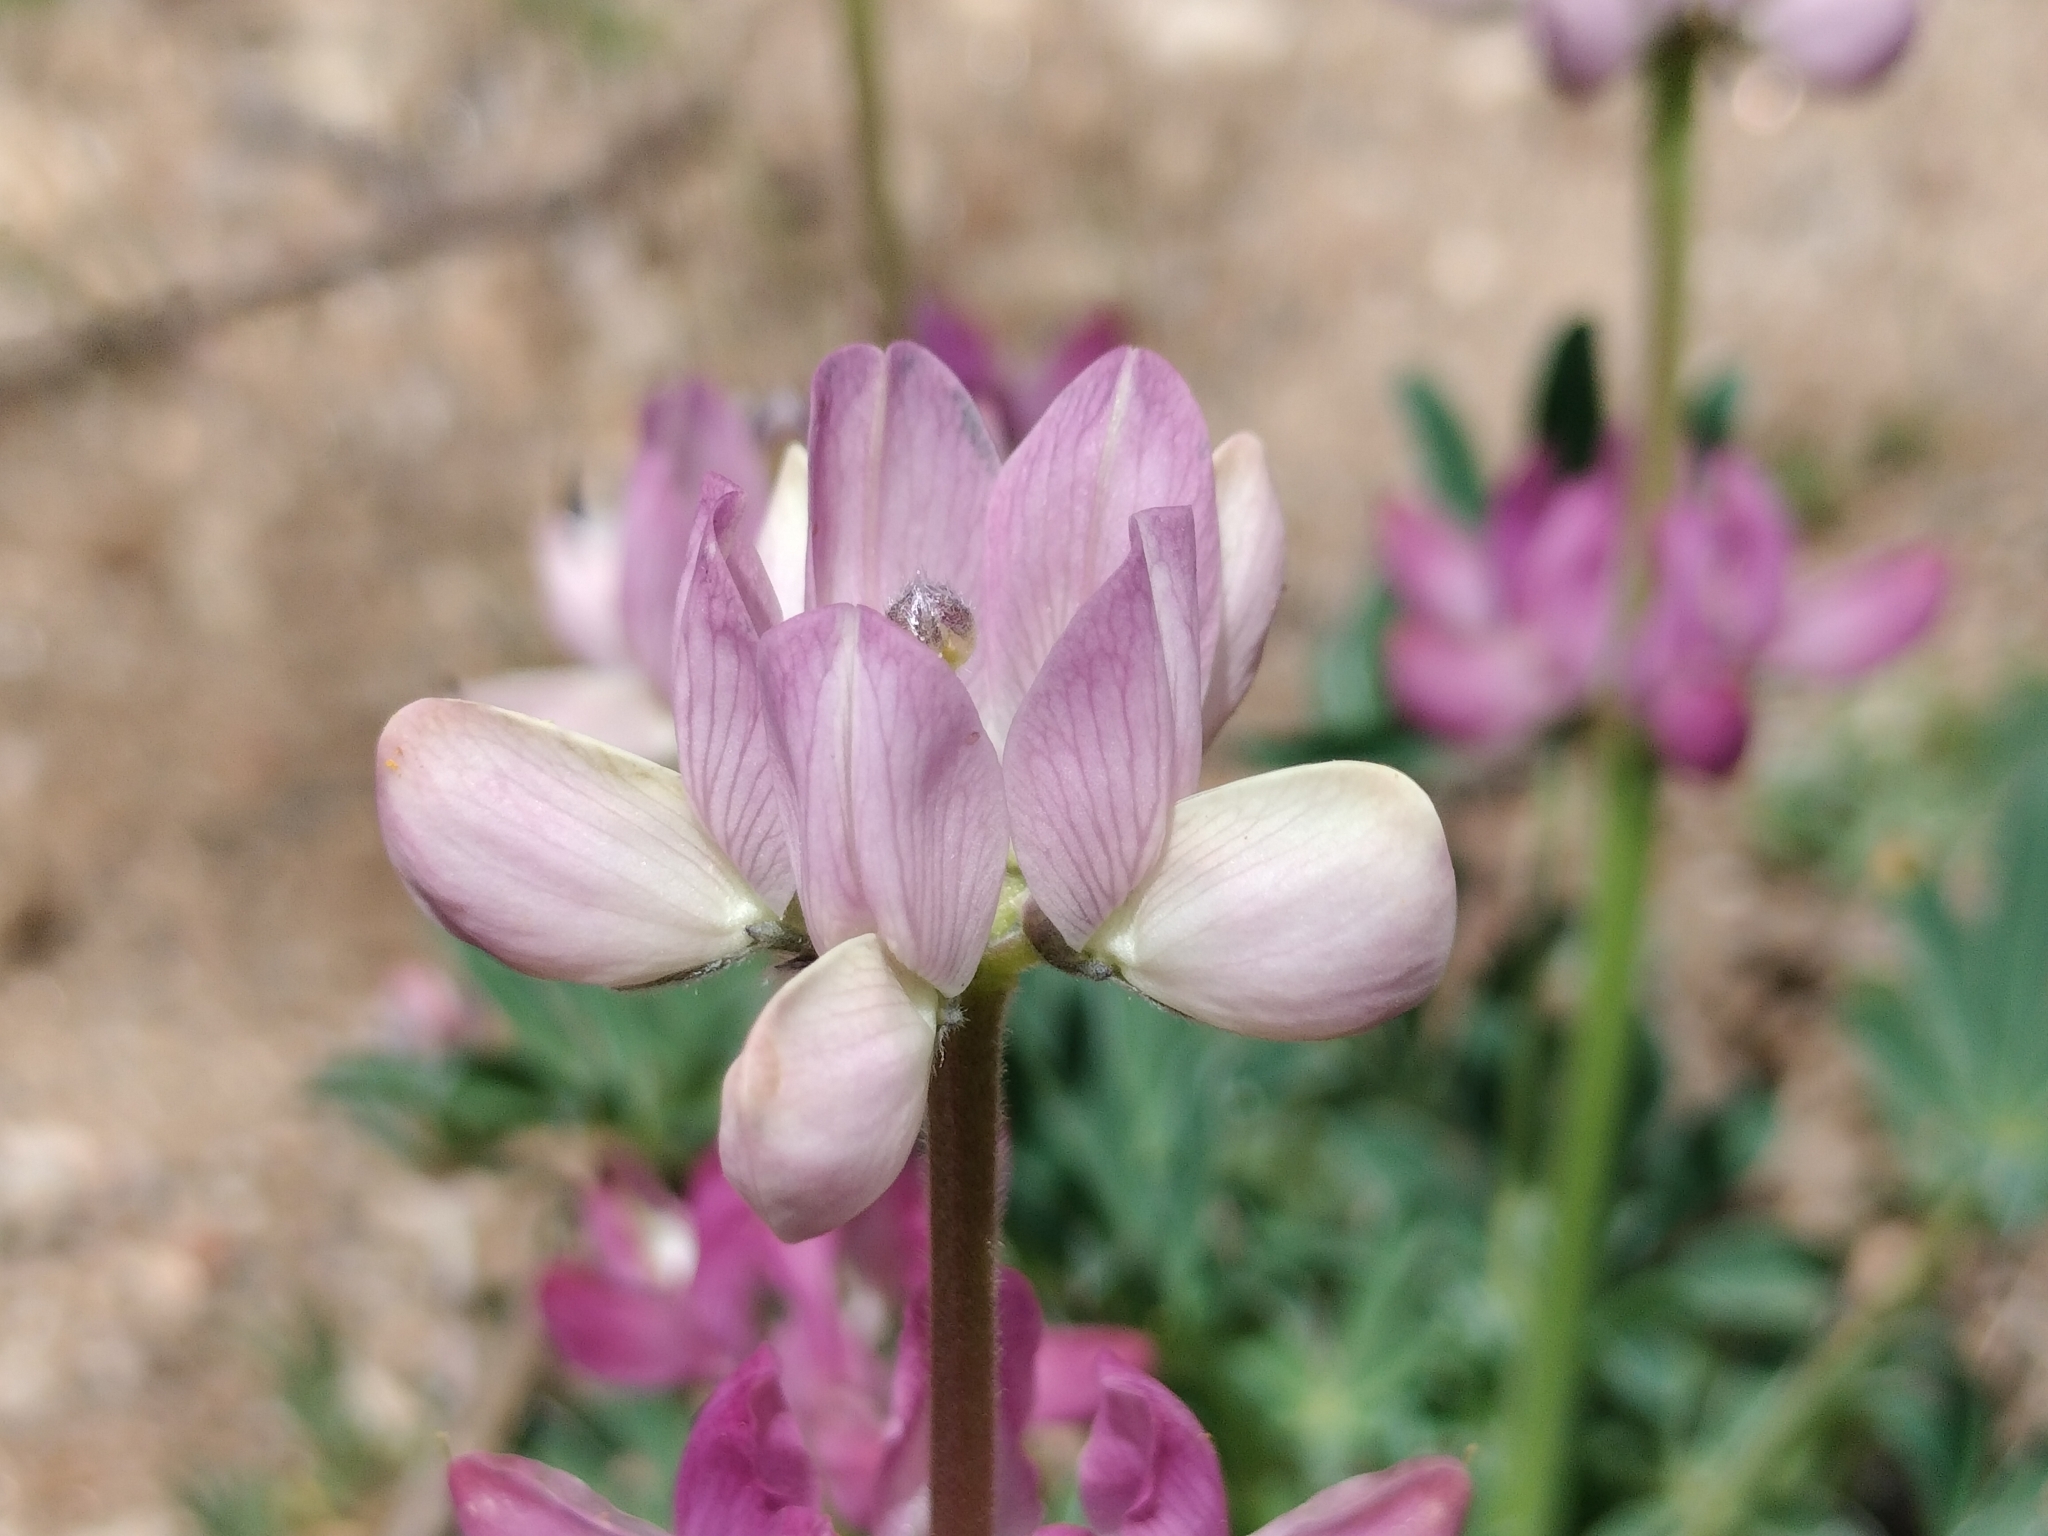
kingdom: Plantae
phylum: Tracheophyta
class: Magnoliopsida
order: Fabales
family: Fabaceae
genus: Lupinus
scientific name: Lupinus hispanicus
